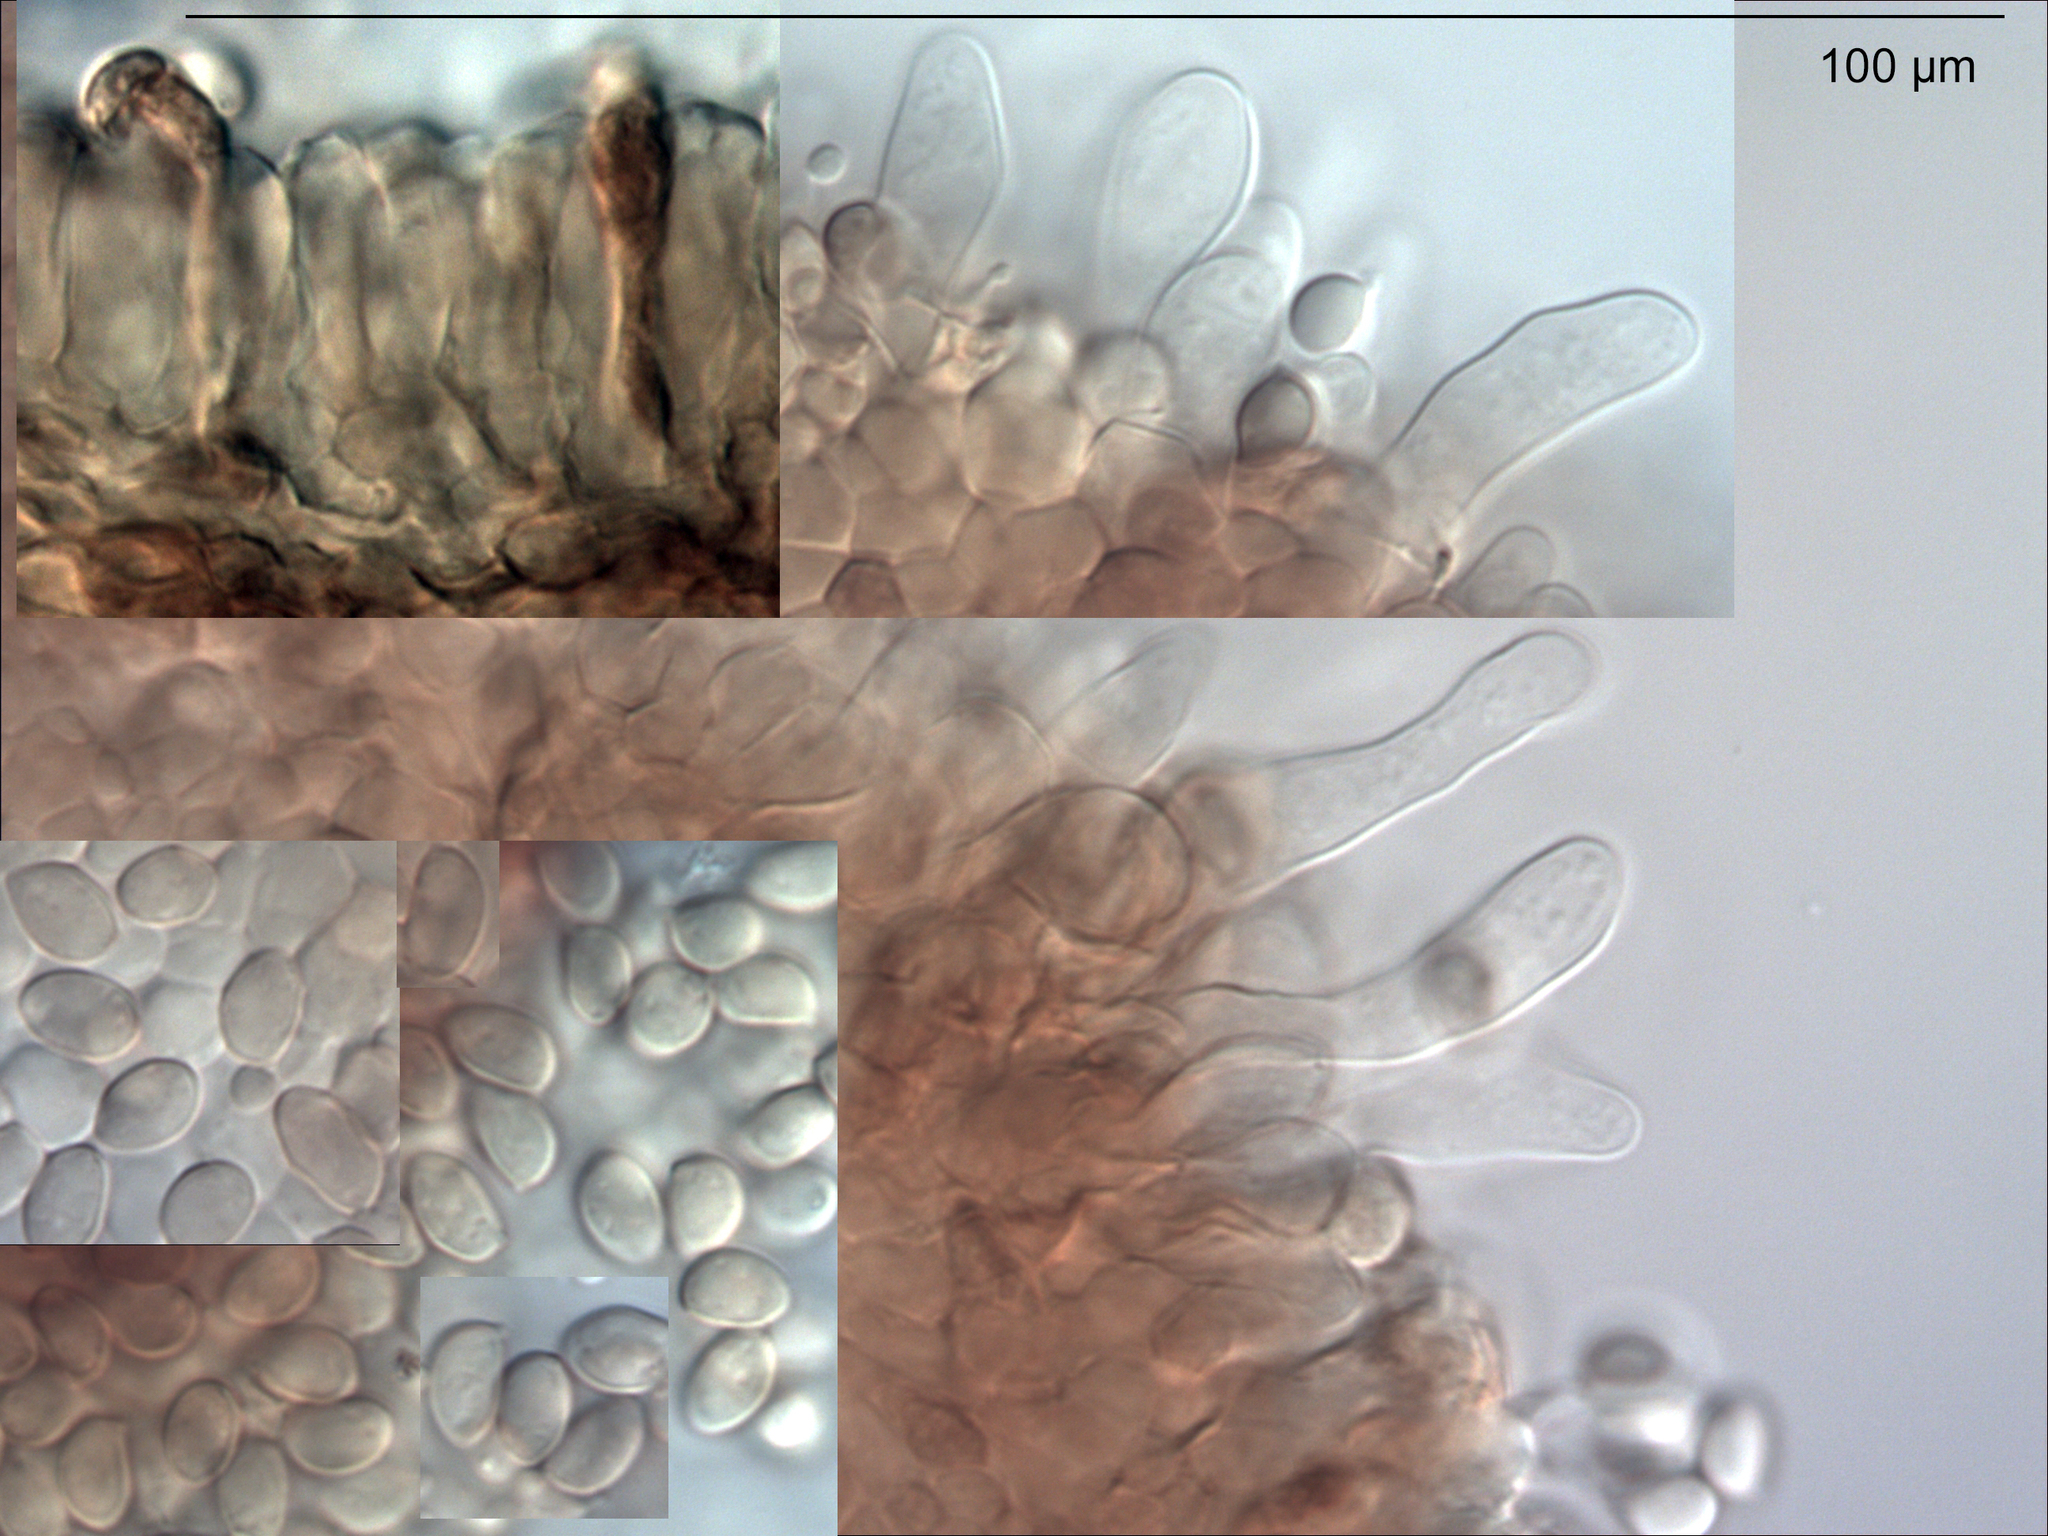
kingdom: Fungi
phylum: Basidiomycota
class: Agaricomycetes
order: Agaricales
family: Tubariaceae
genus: Tubaria
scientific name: Tubaria recta
